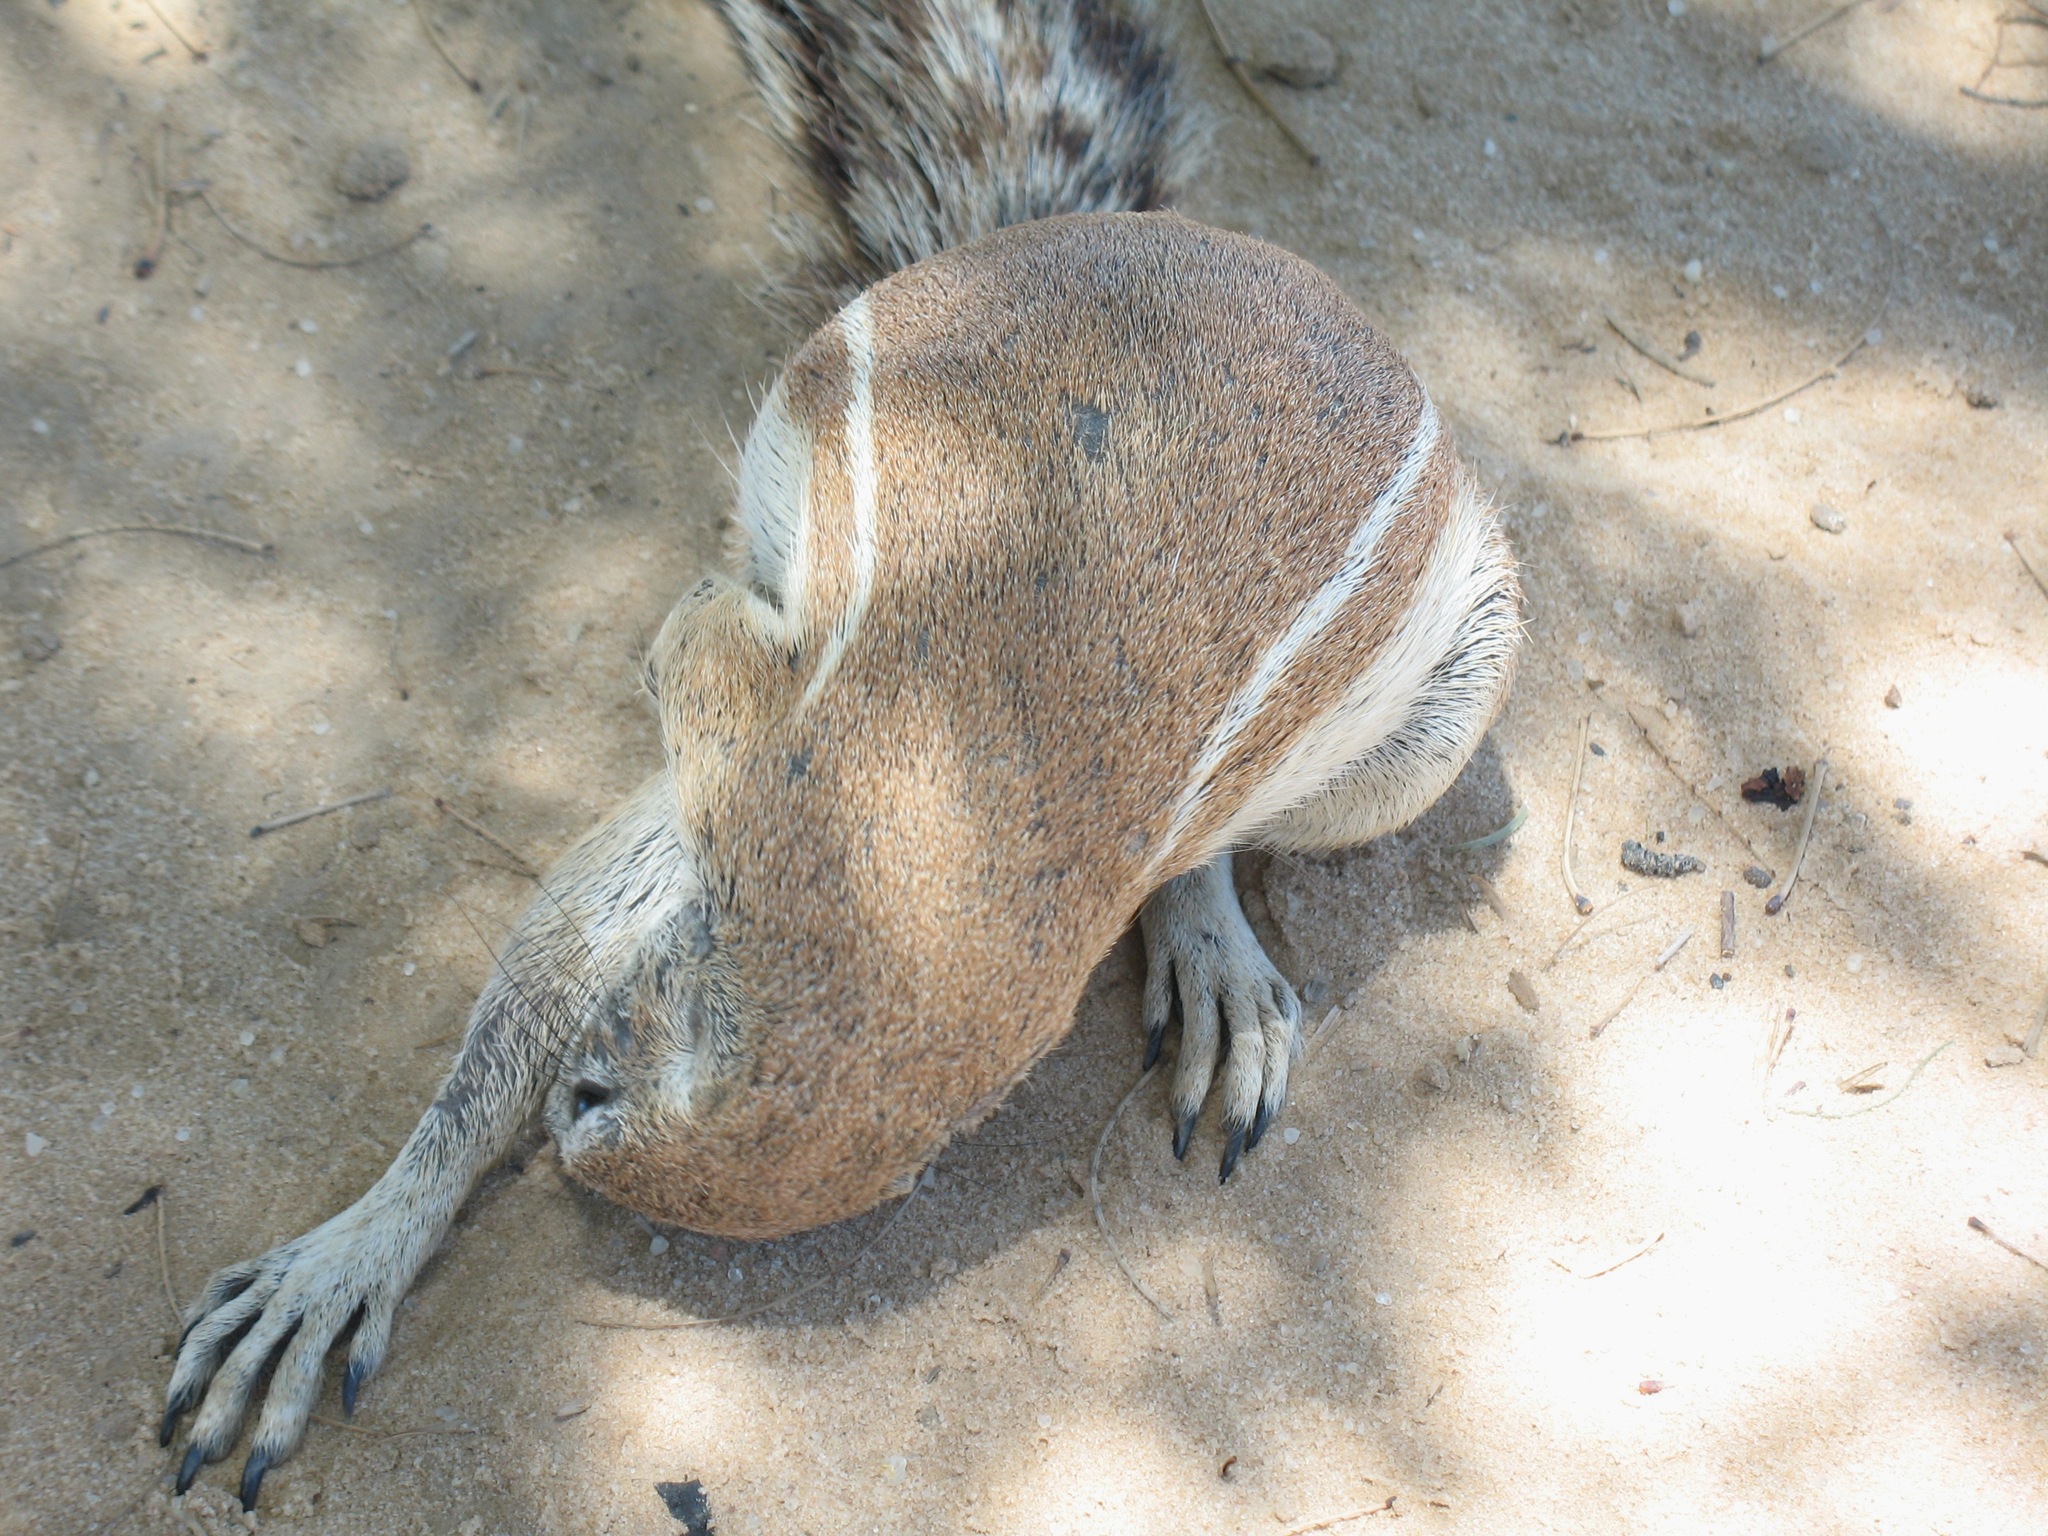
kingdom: Animalia
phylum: Chordata
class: Mammalia
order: Rodentia
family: Sciuridae
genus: Xerus
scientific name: Xerus inauris
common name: South african ground squirrel
